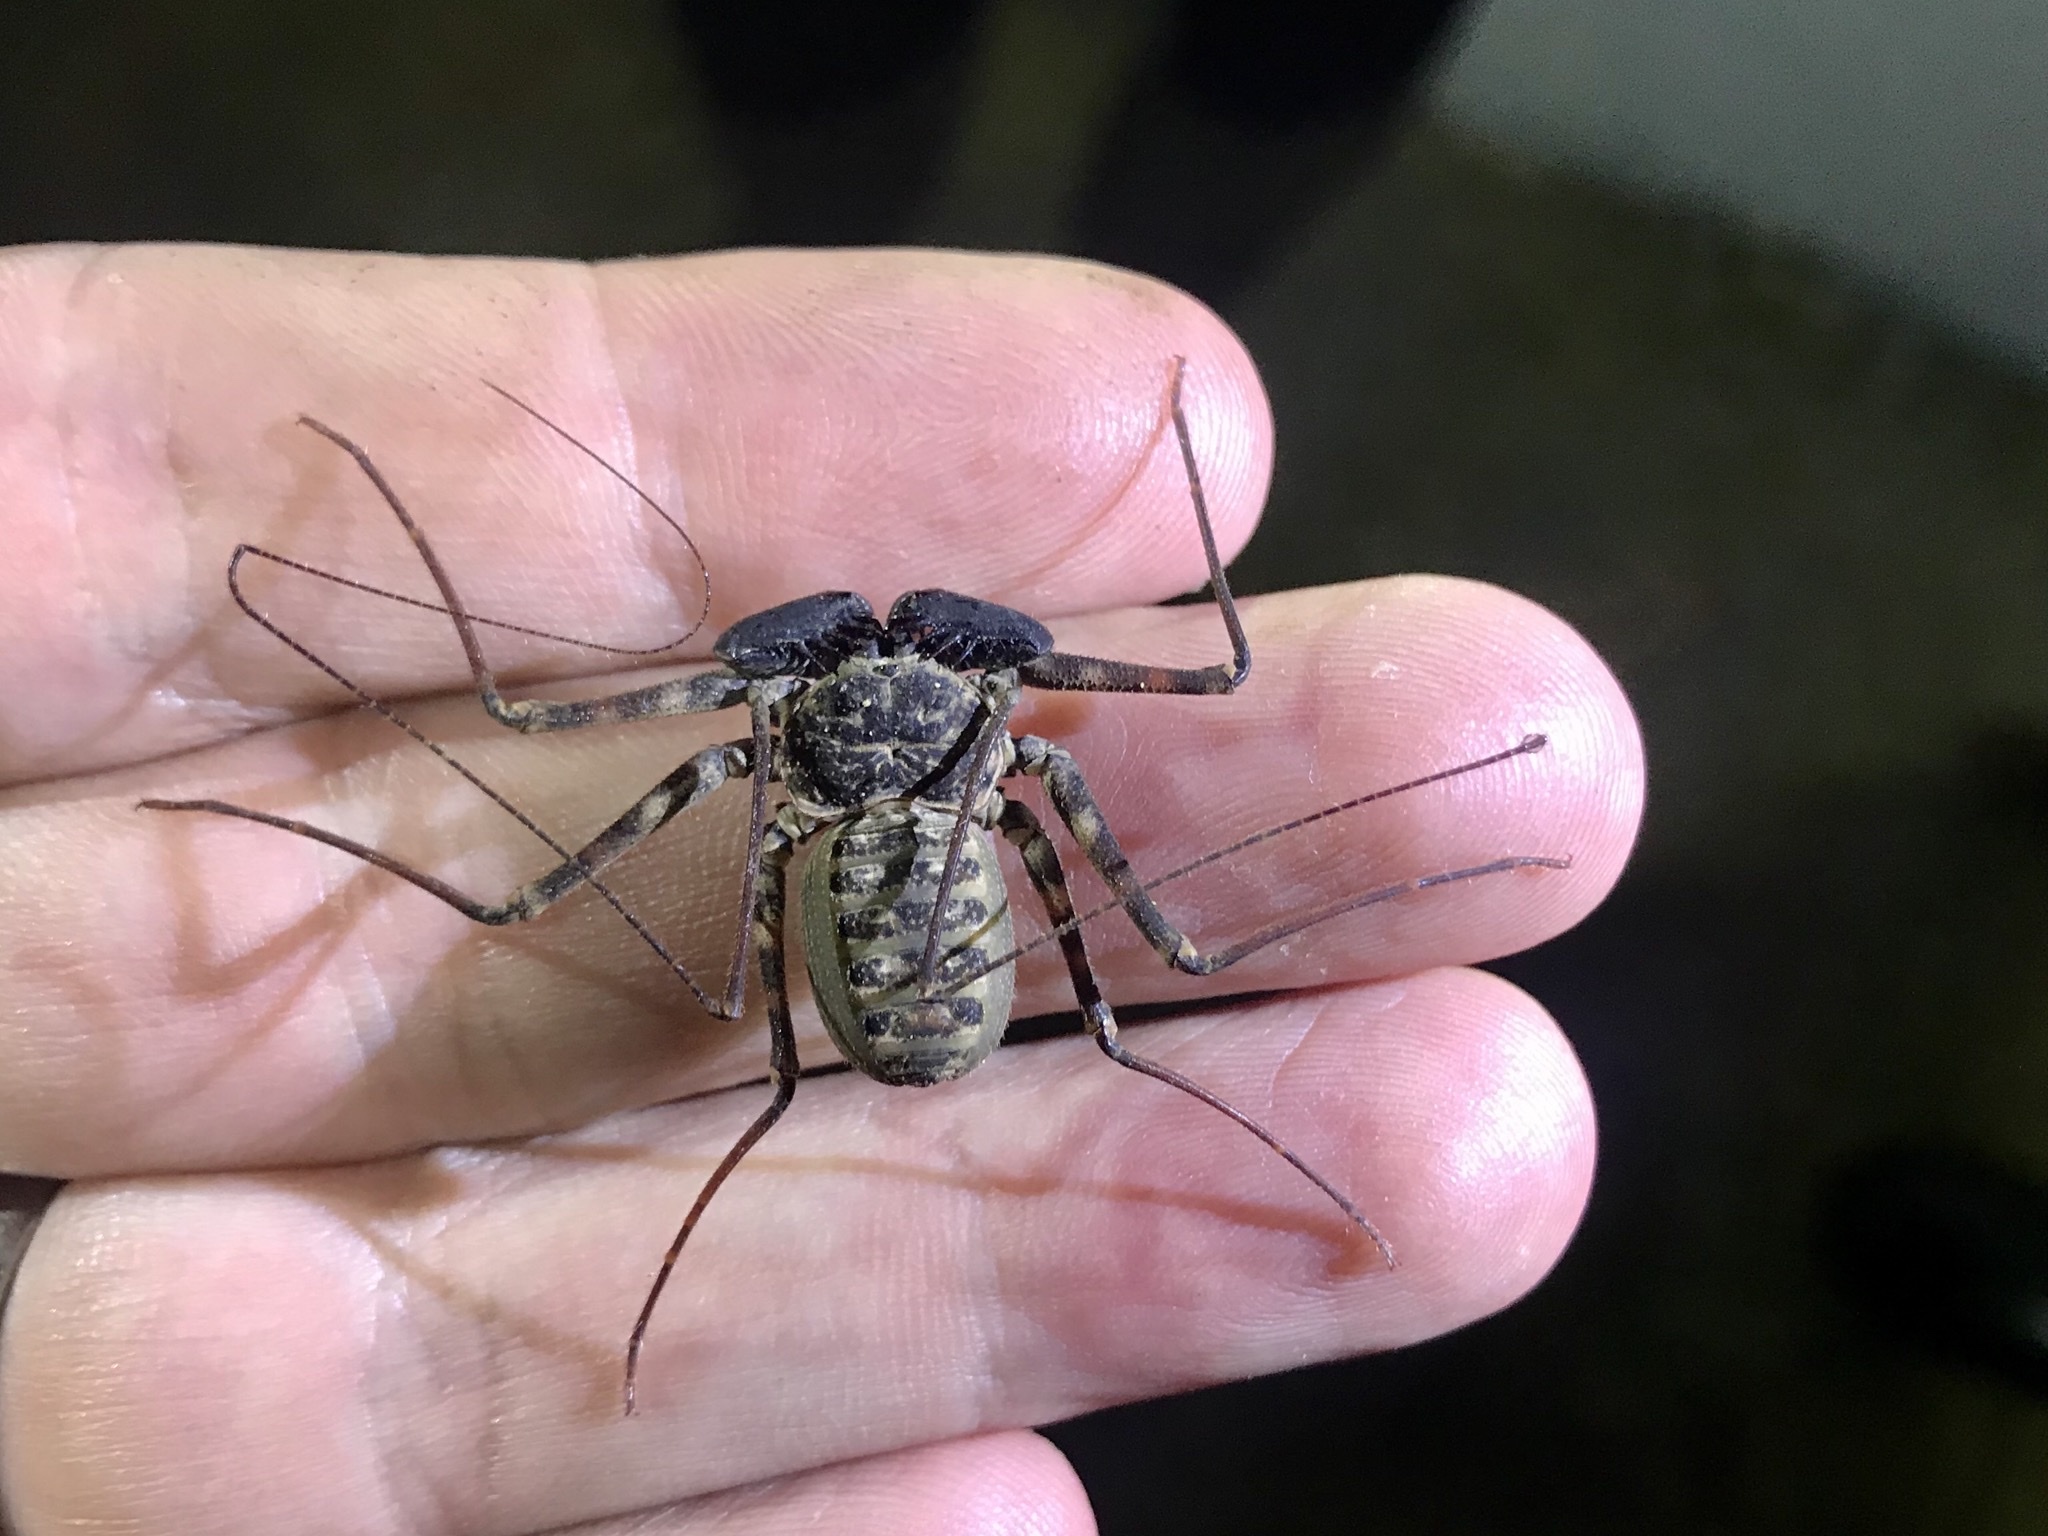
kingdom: Animalia
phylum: Arthropoda
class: Arachnida
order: Amblypygi
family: Phrynidae
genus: Phrynus
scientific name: Phrynus barbadensis
